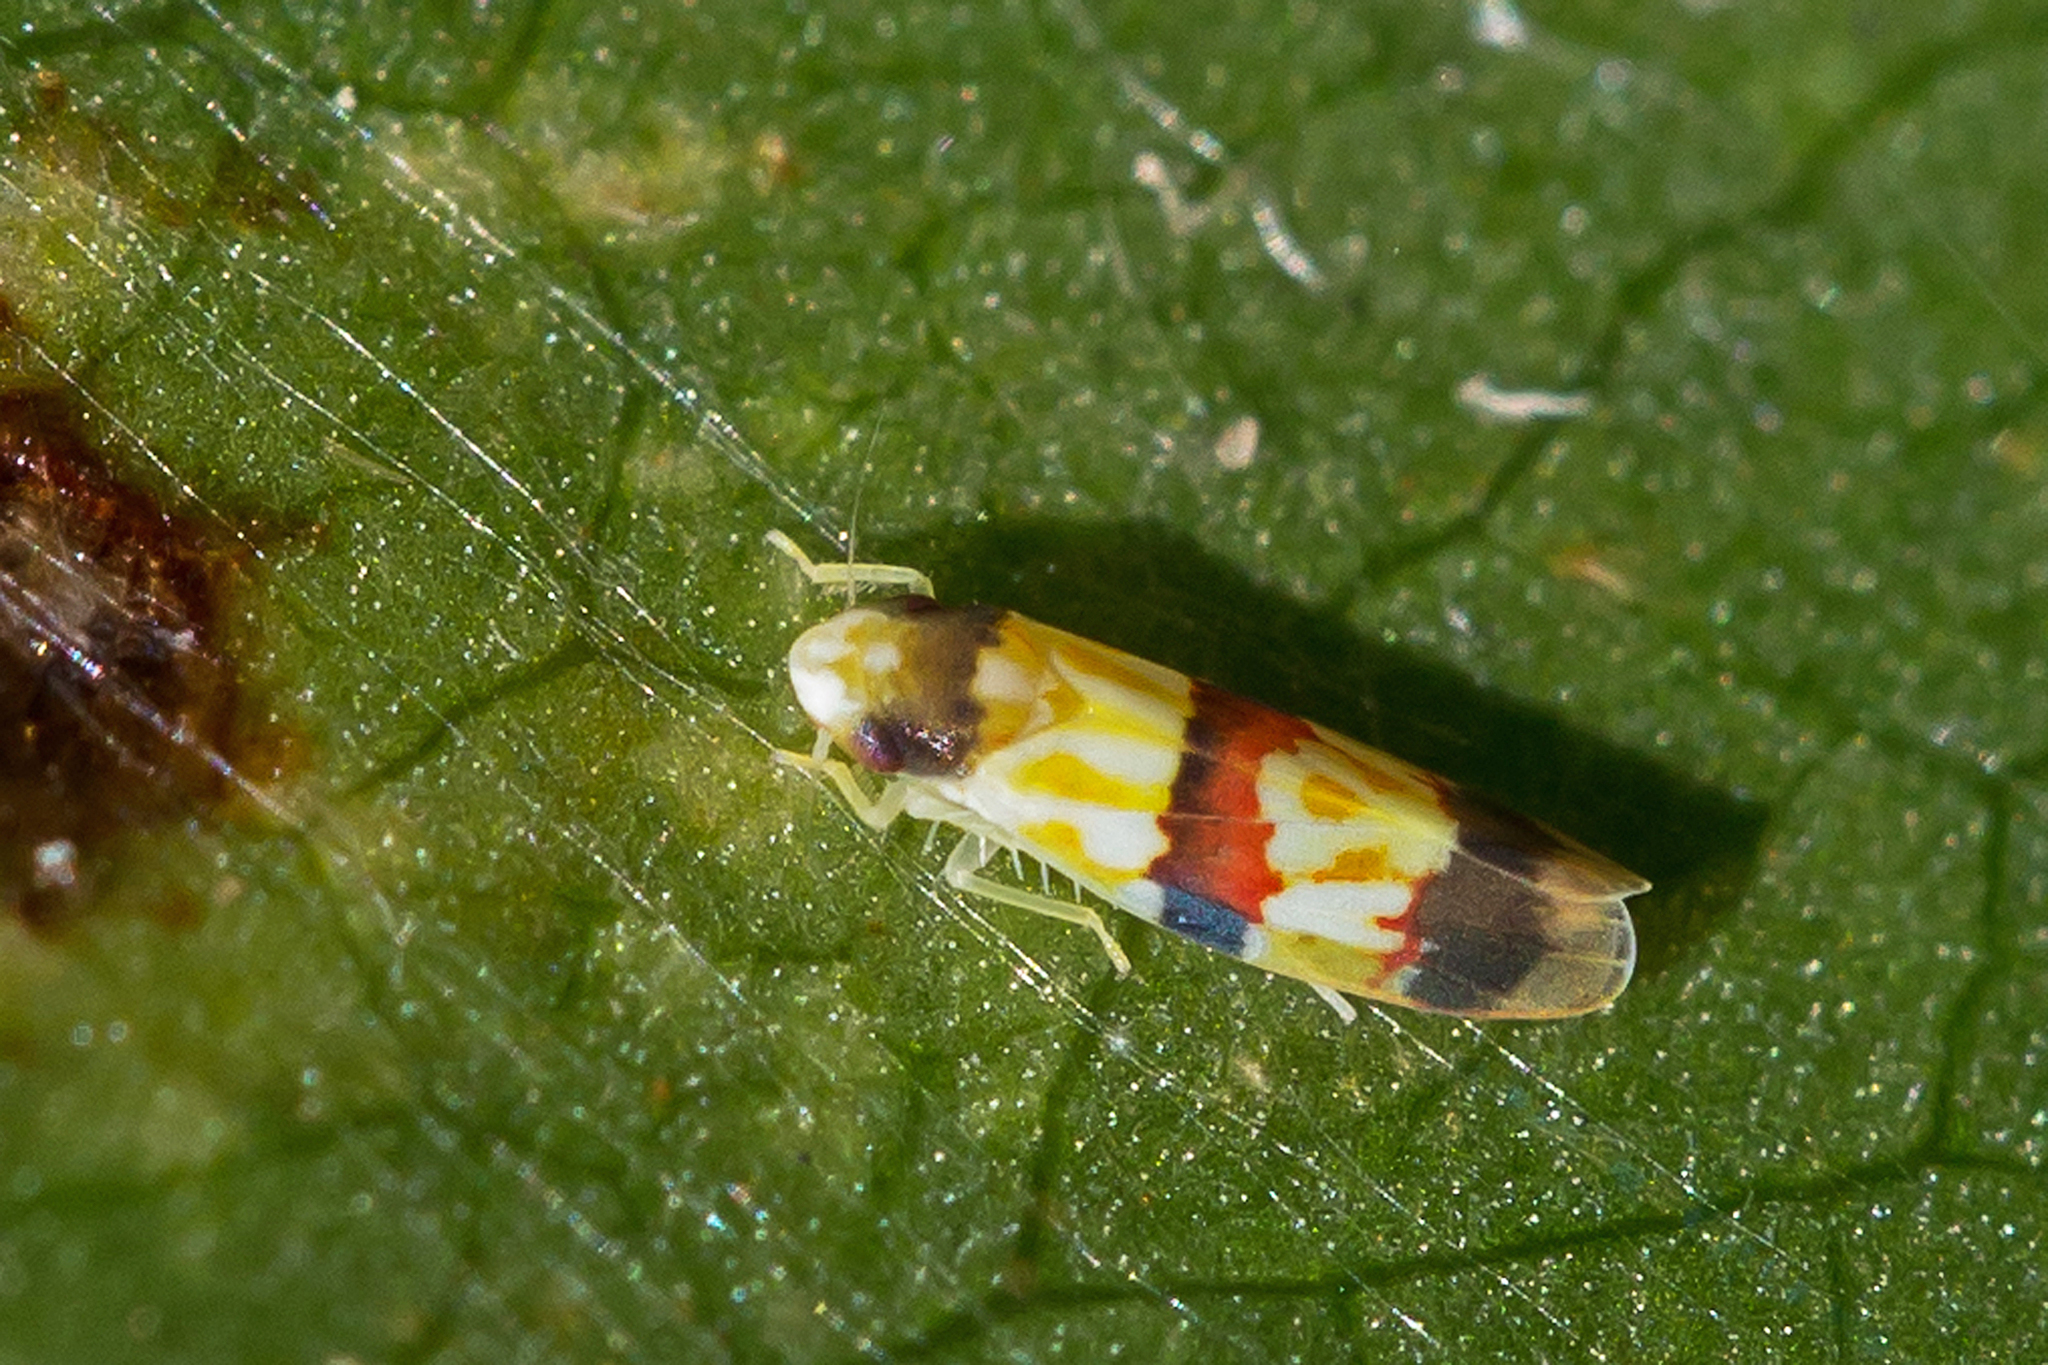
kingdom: Animalia
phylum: Arthropoda
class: Insecta
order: Hemiptera
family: Cicadellidae
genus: Erythroneura
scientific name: Erythroneura integra
